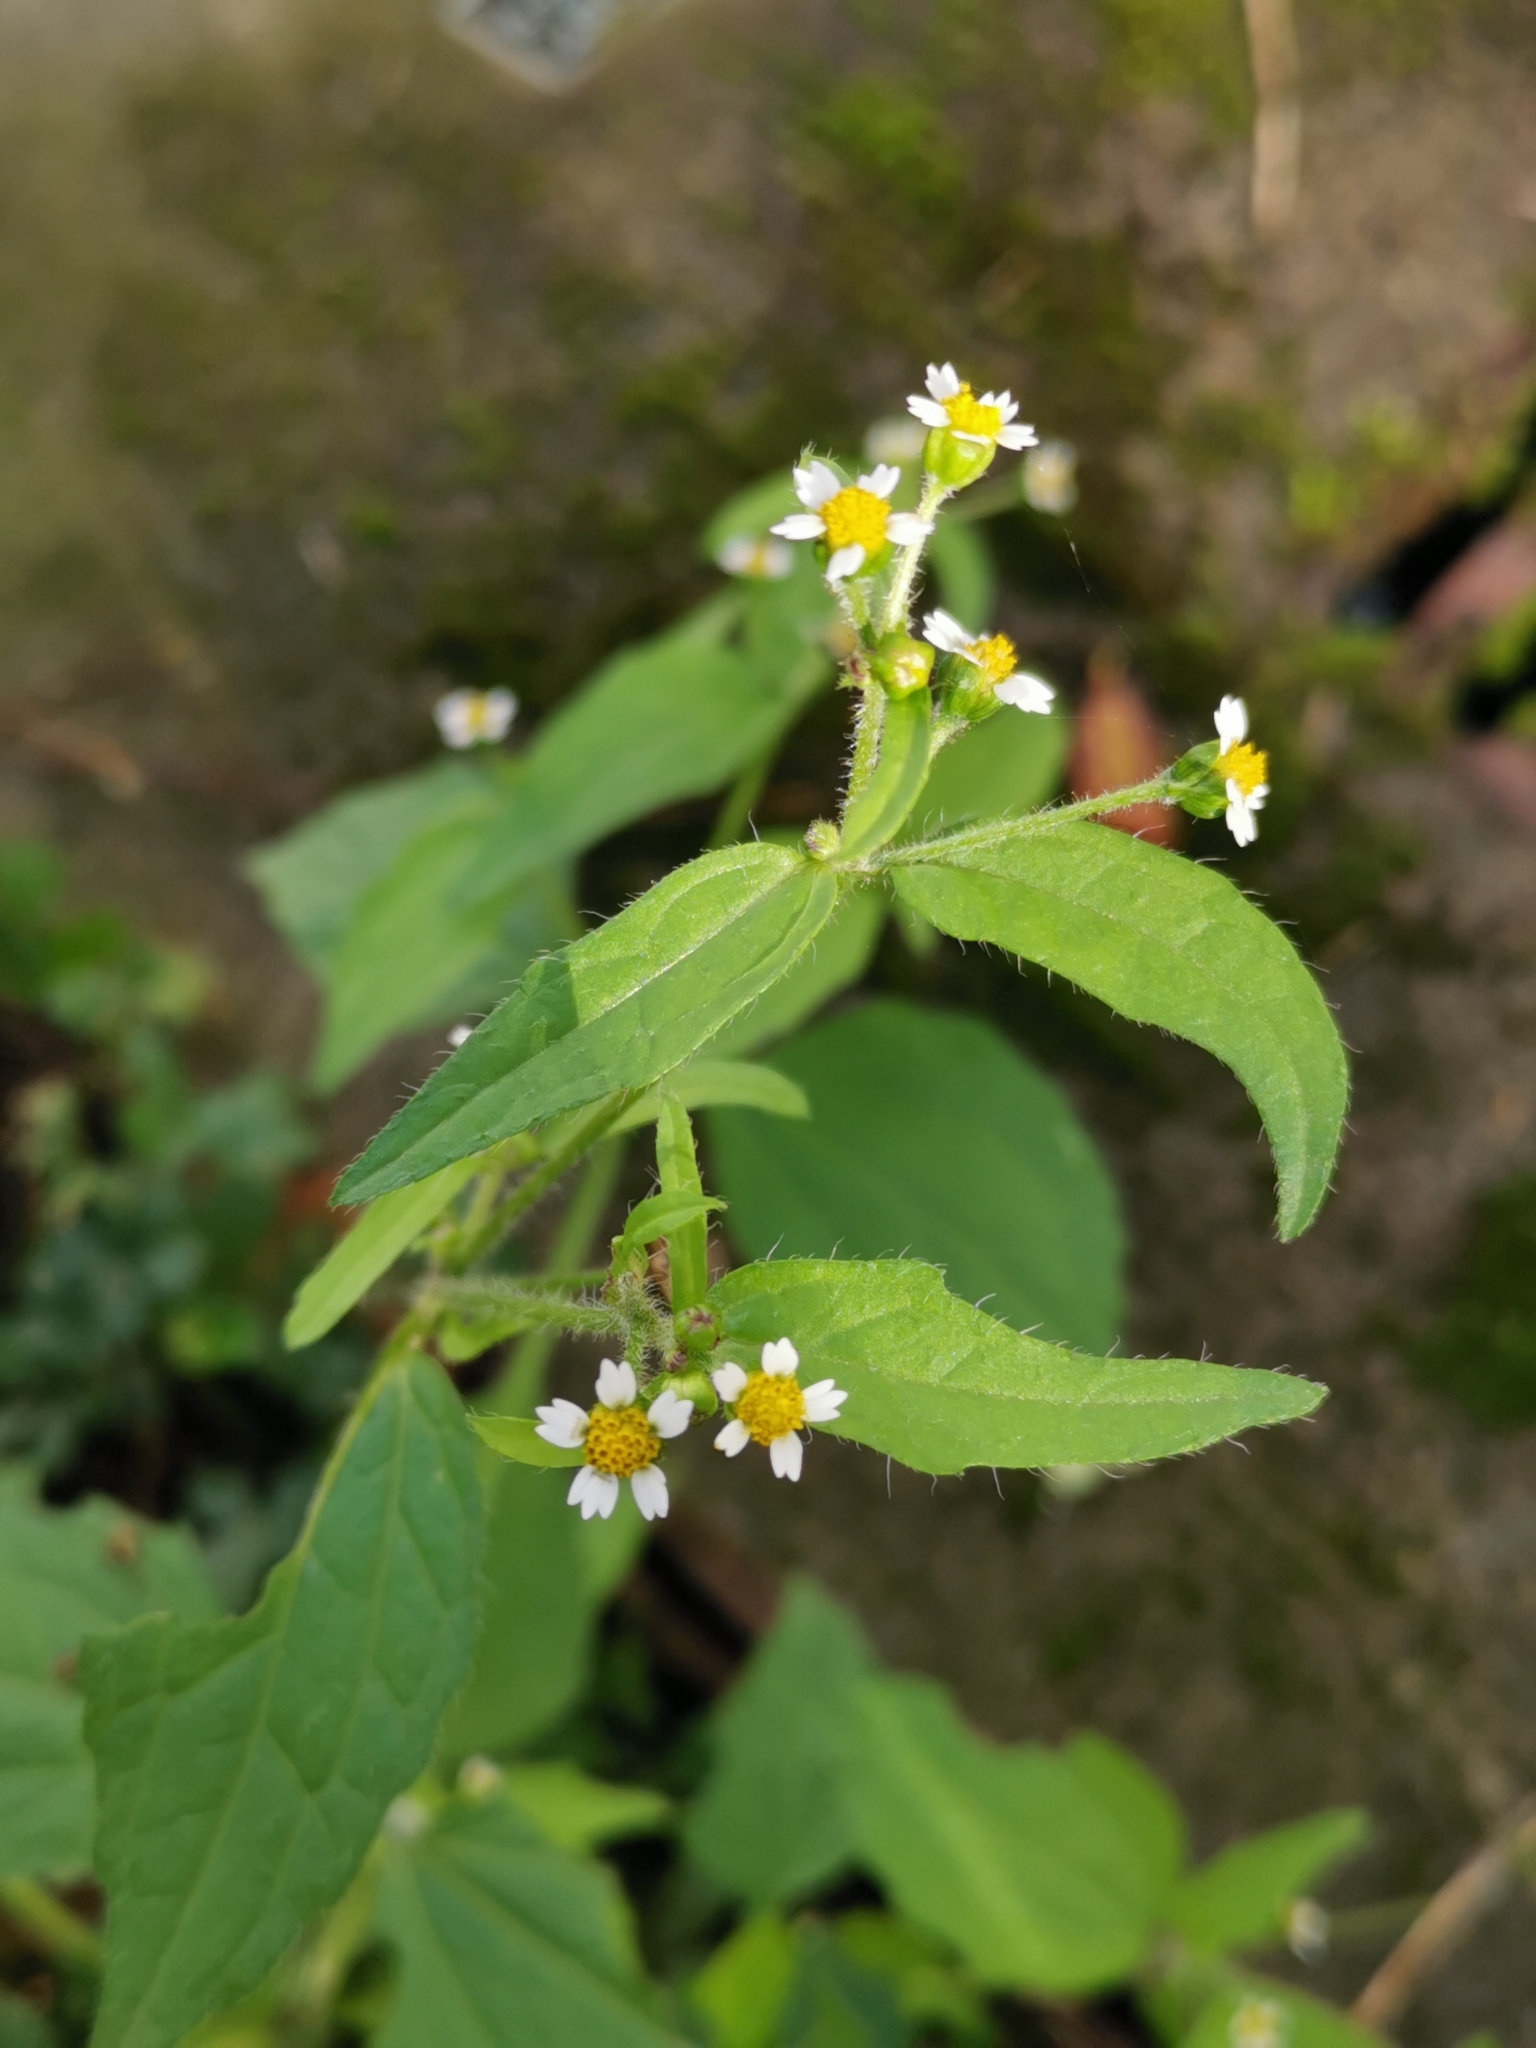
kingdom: Plantae
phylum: Tracheophyta
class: Magnoliopsida
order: Asterales
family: Asteraceae
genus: Galinsoga
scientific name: Galinsoga quadriradiata
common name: Shaggy soldier
